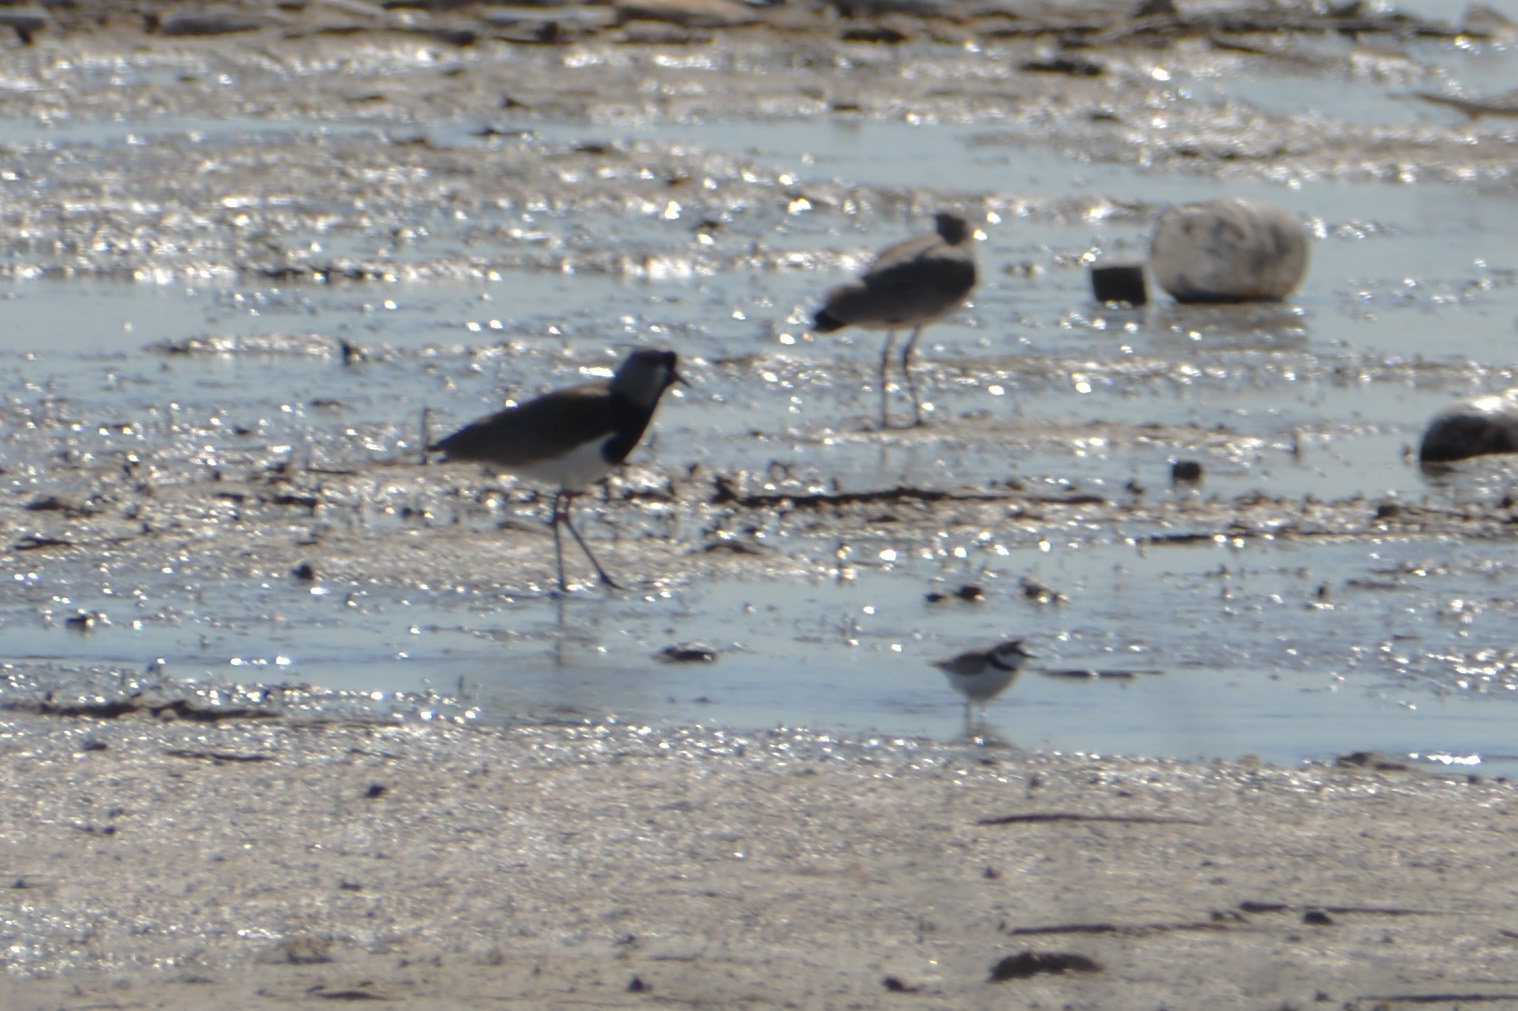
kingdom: Animalia
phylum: Chordata
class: Aves
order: Charadriiformes
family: Charadriidae
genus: Vanellus
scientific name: Vanellus chilensis
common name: Southern lapwing
